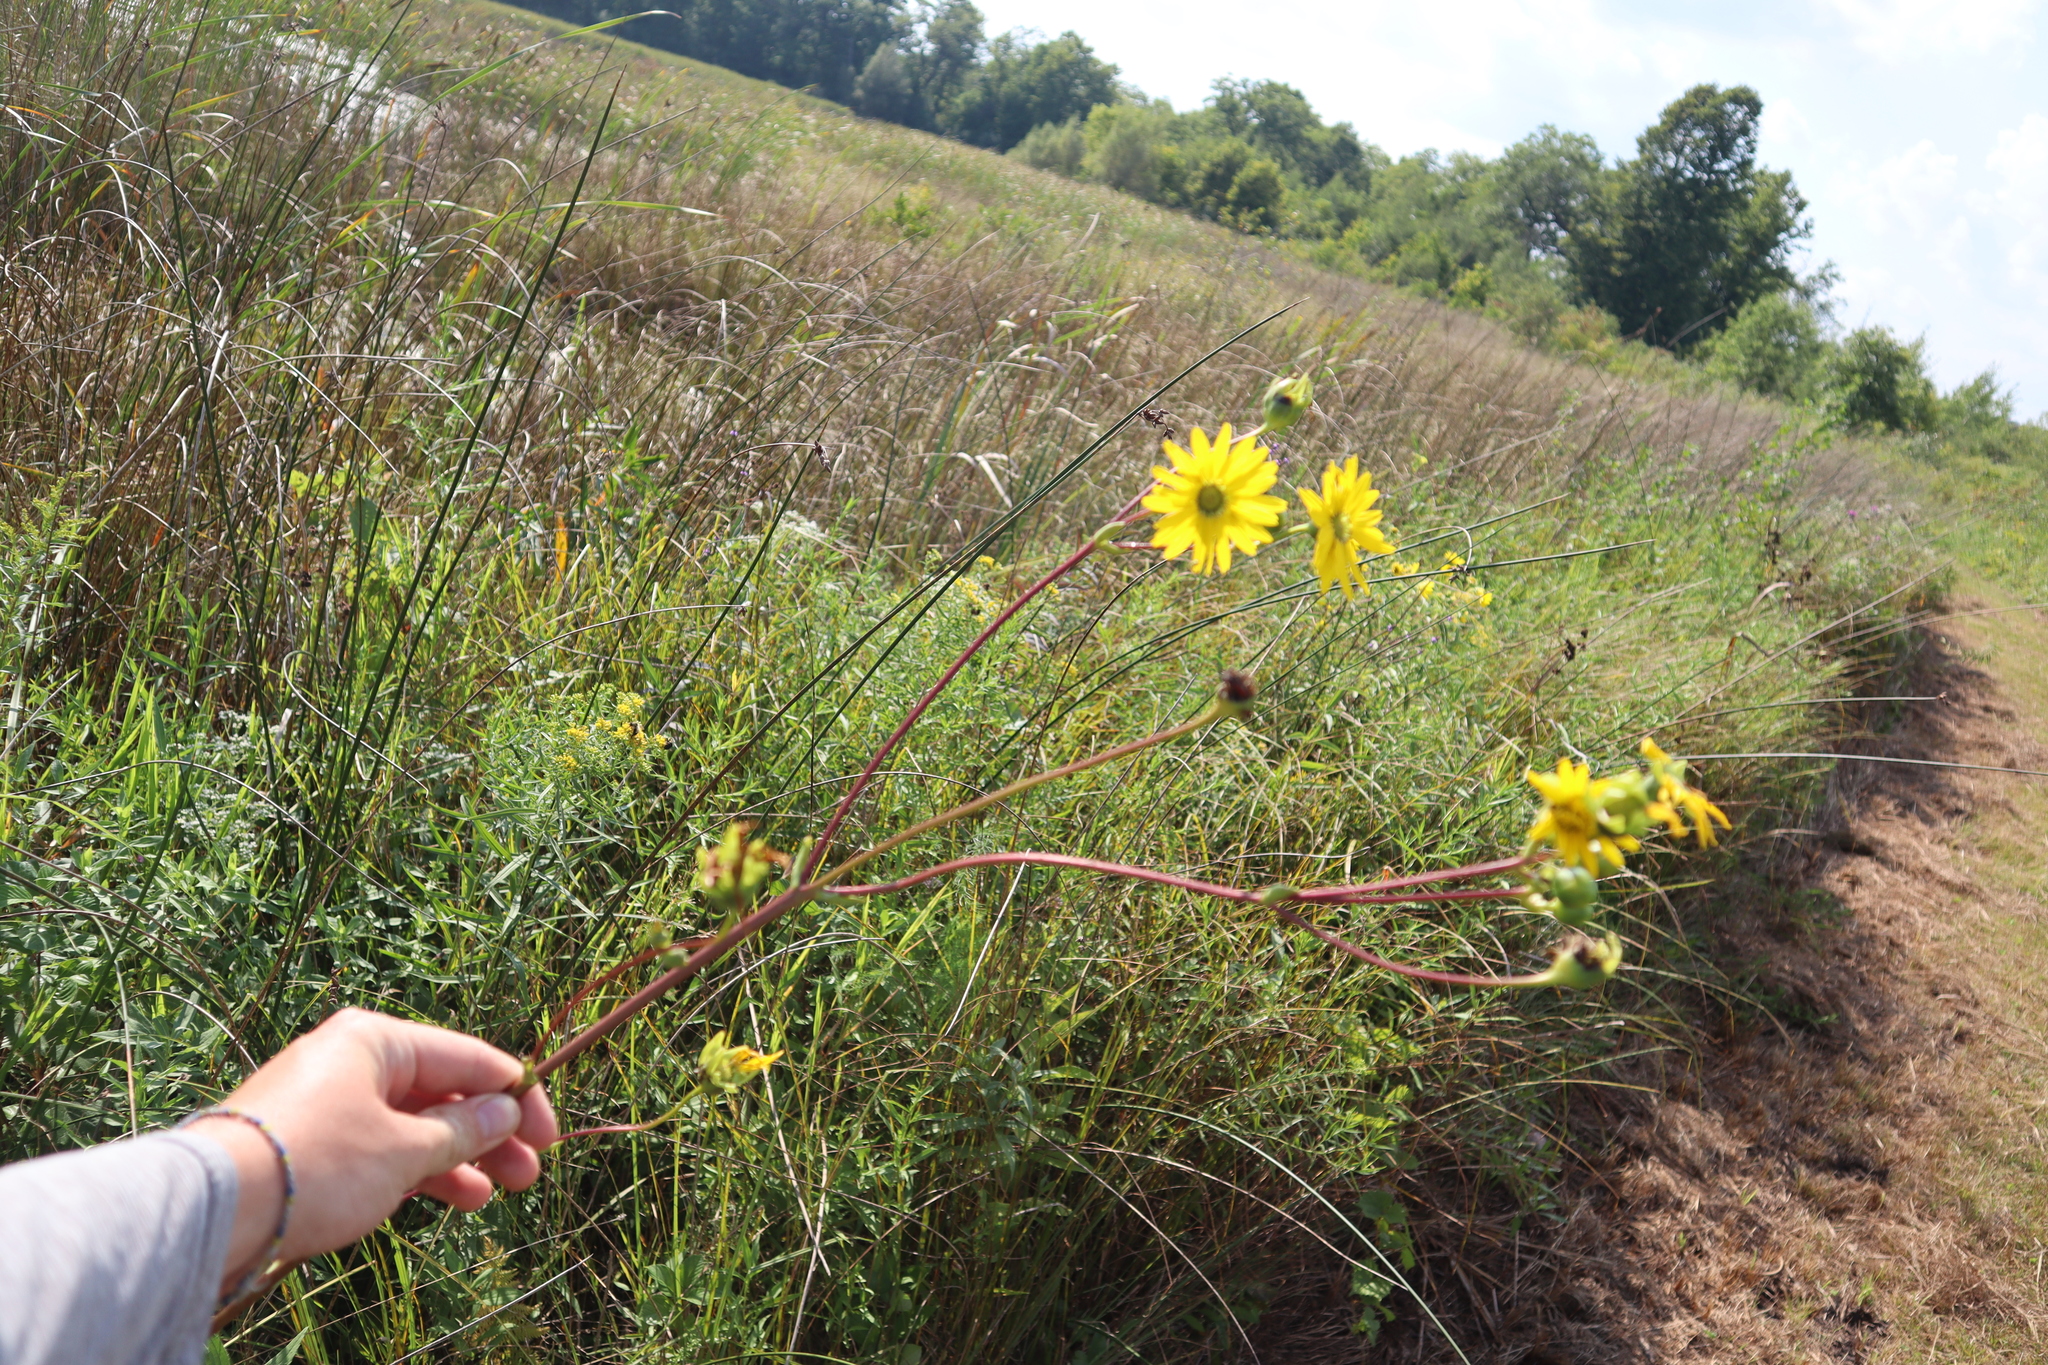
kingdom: Plantae
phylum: Tracheophyta
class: Magnoliopsida
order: Asterales
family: Asteraceae
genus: Silphium
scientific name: Silphium terebinthinaceum
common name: Basal-leaf rosinweed
